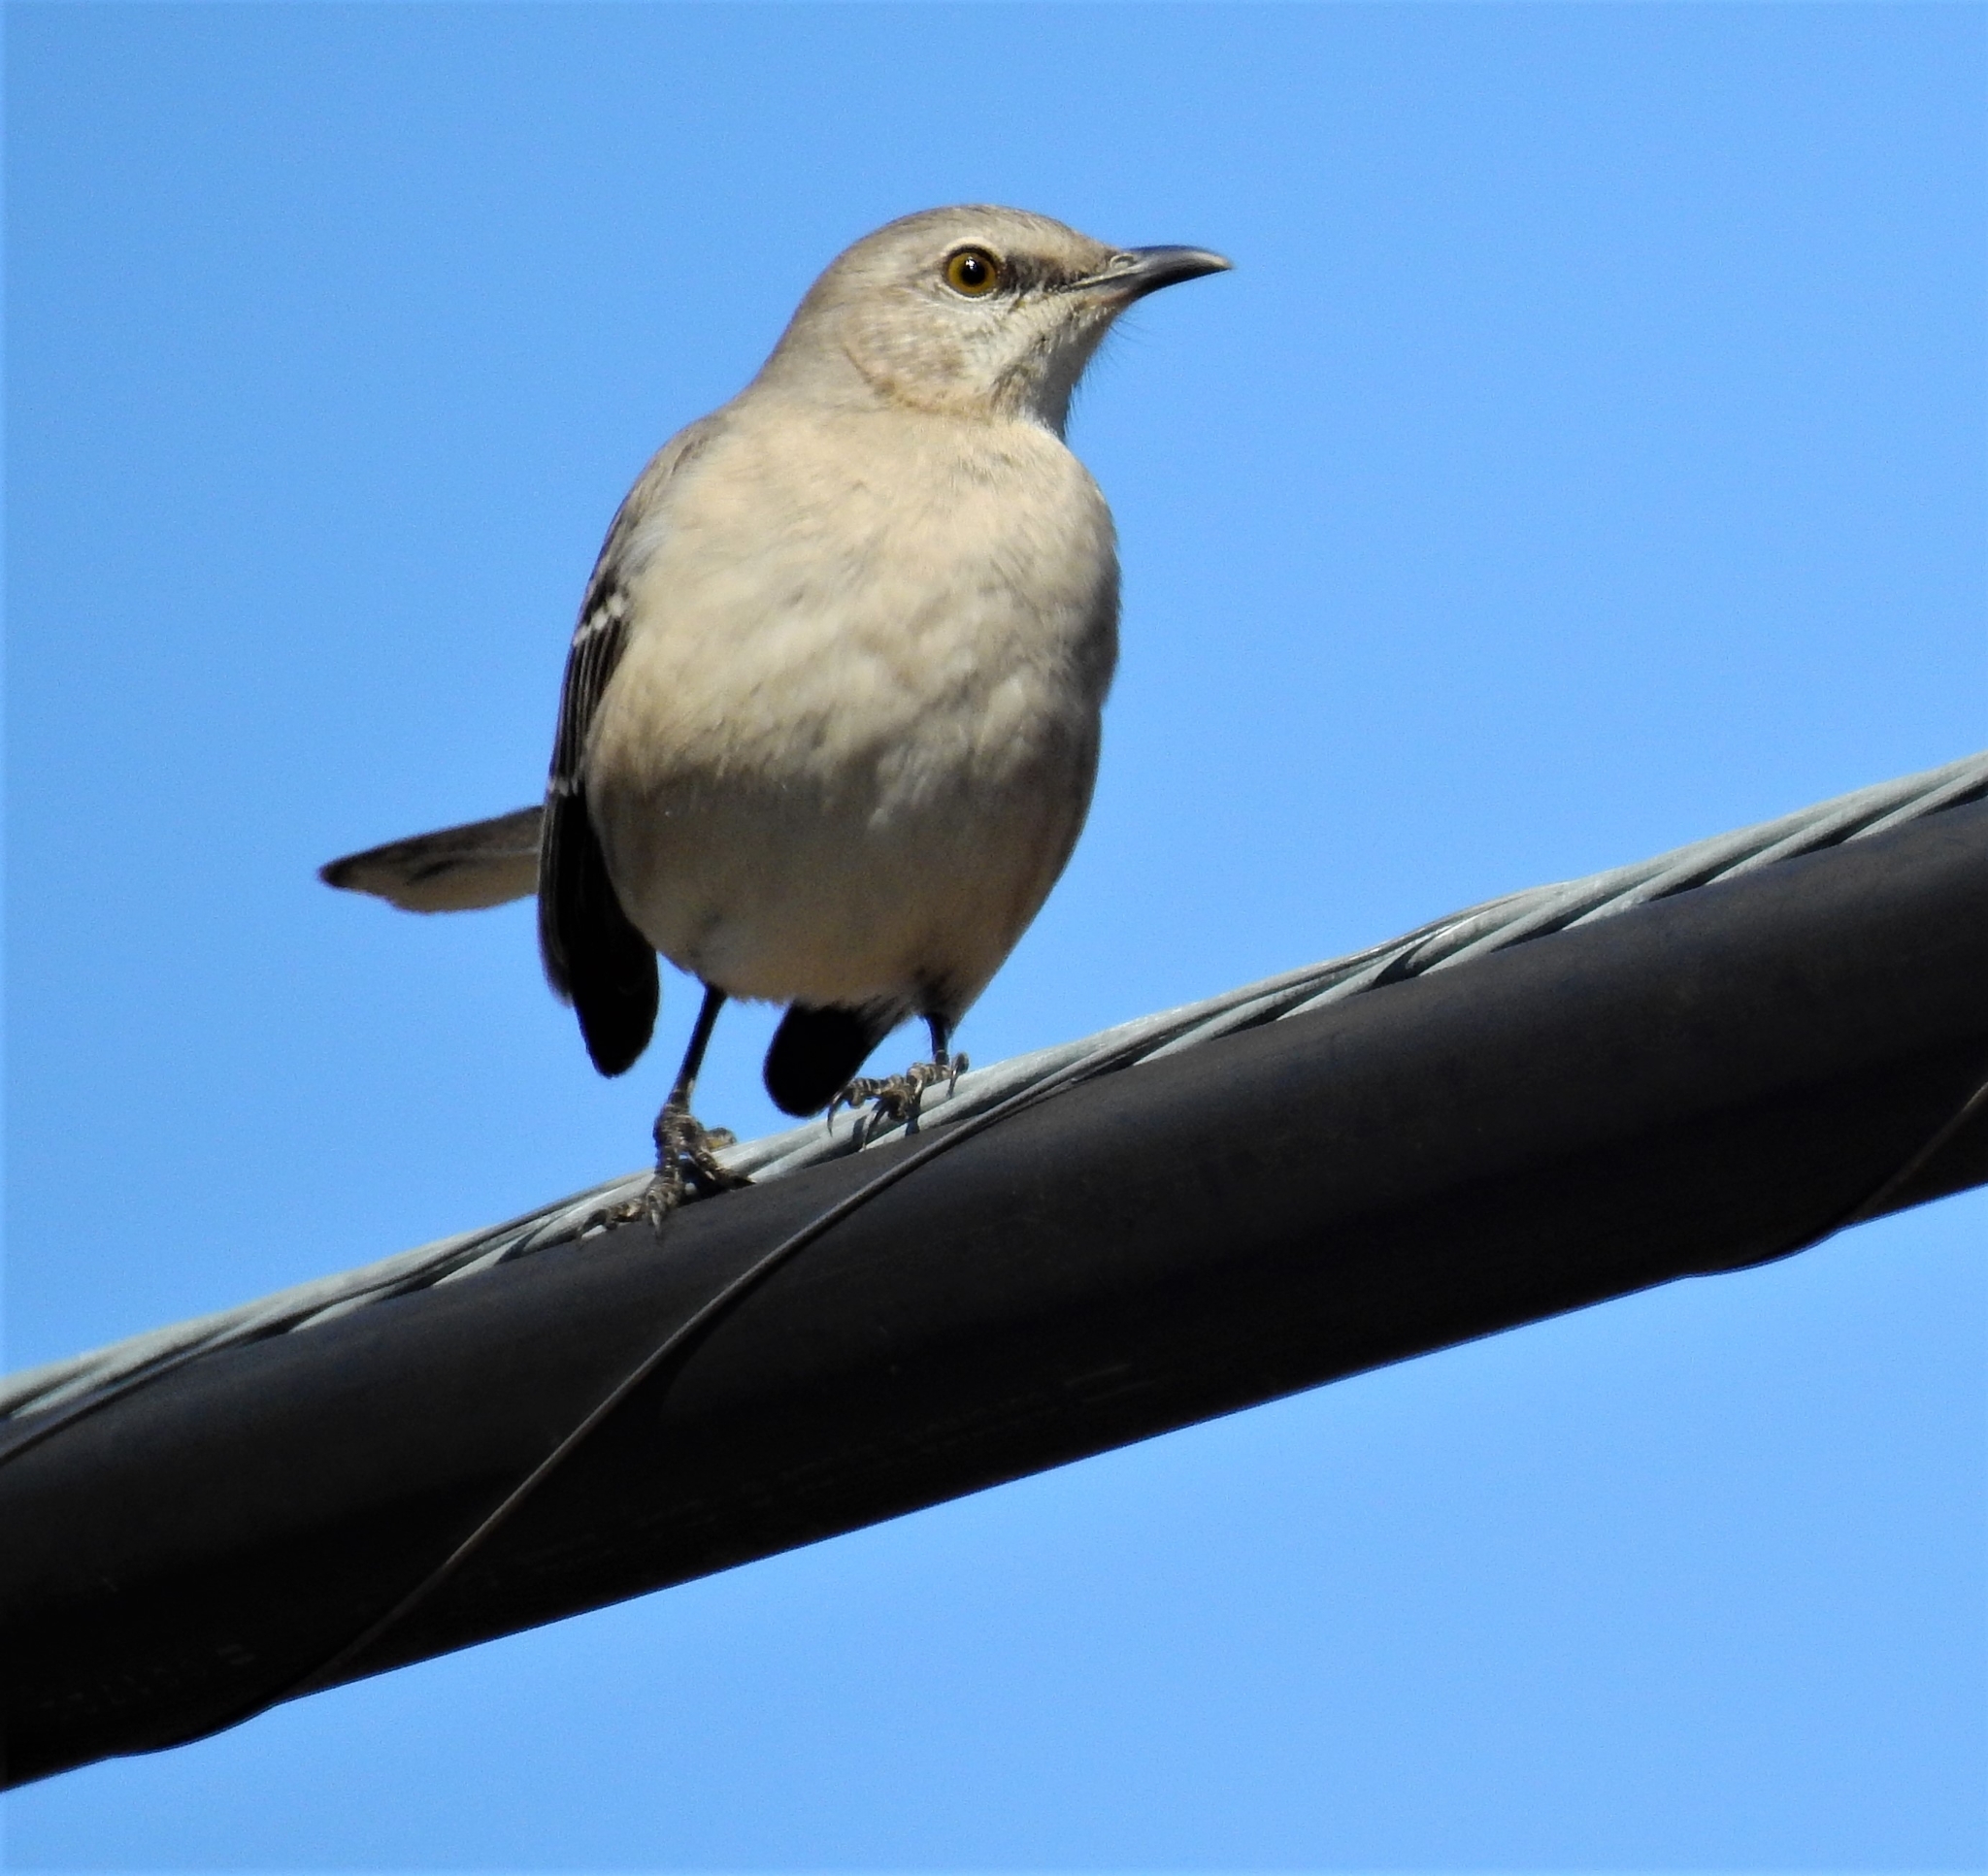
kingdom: Animalia
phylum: Chordata
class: Aves
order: Passeriformes
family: Mimidae
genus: Mimus
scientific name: Mimus polyglottos
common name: Northern mockingbird
